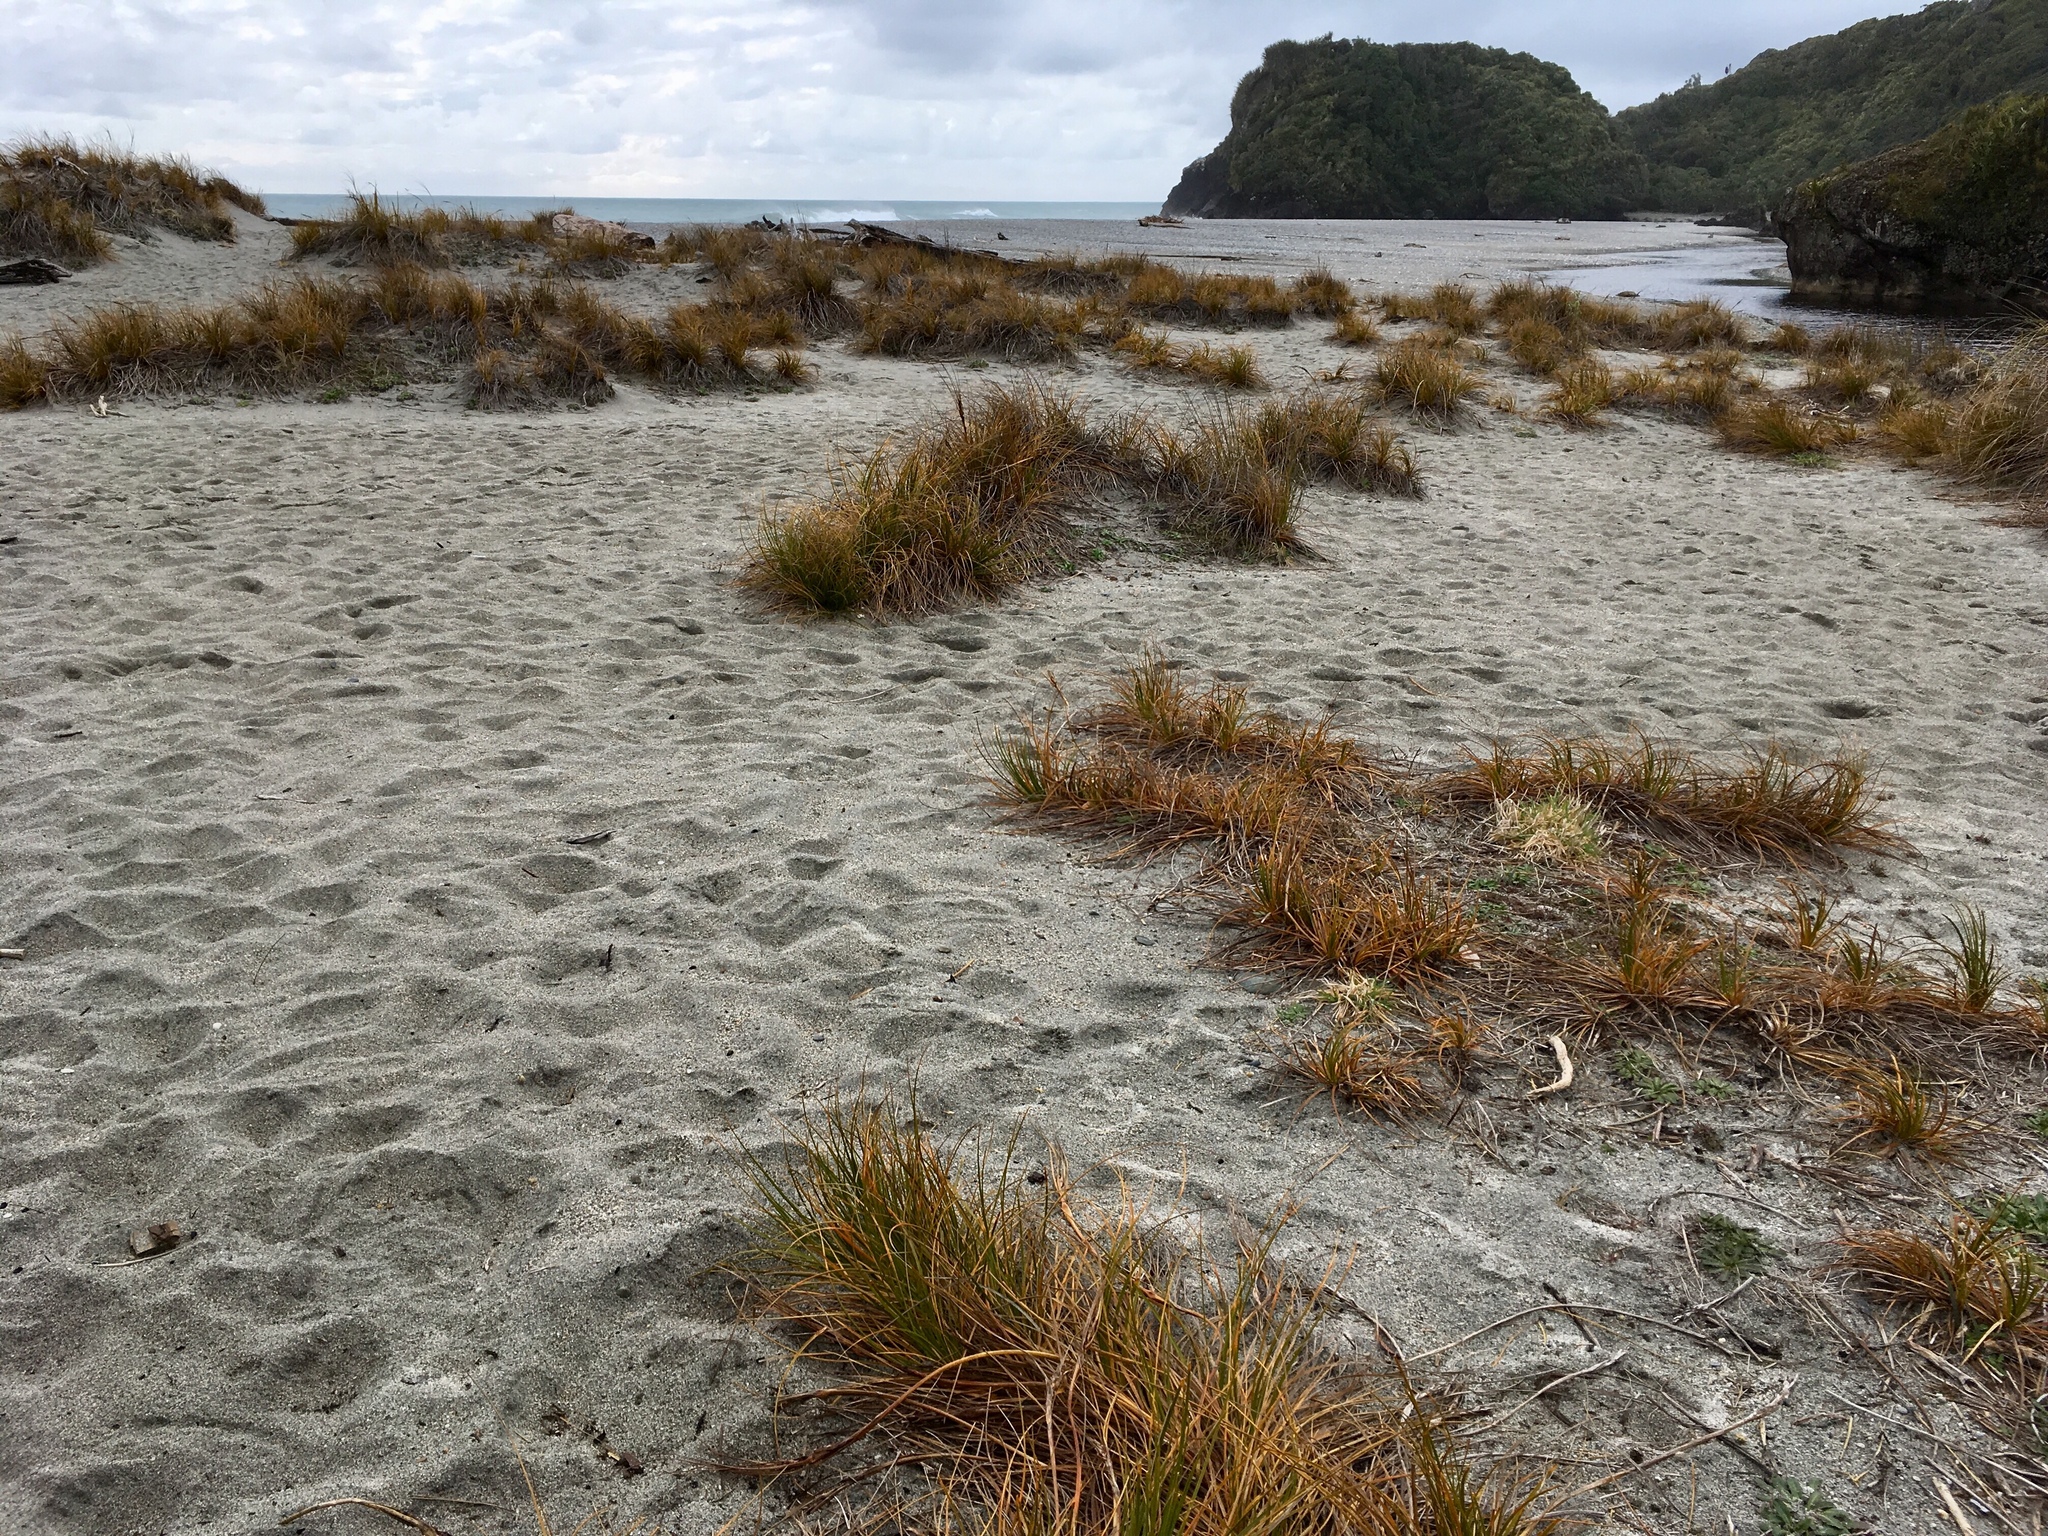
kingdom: Plantae
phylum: Tracheophyta
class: Liliopsida
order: Poales
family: Cyperaceae
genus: Ficinia
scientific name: Ficinia spiralis
